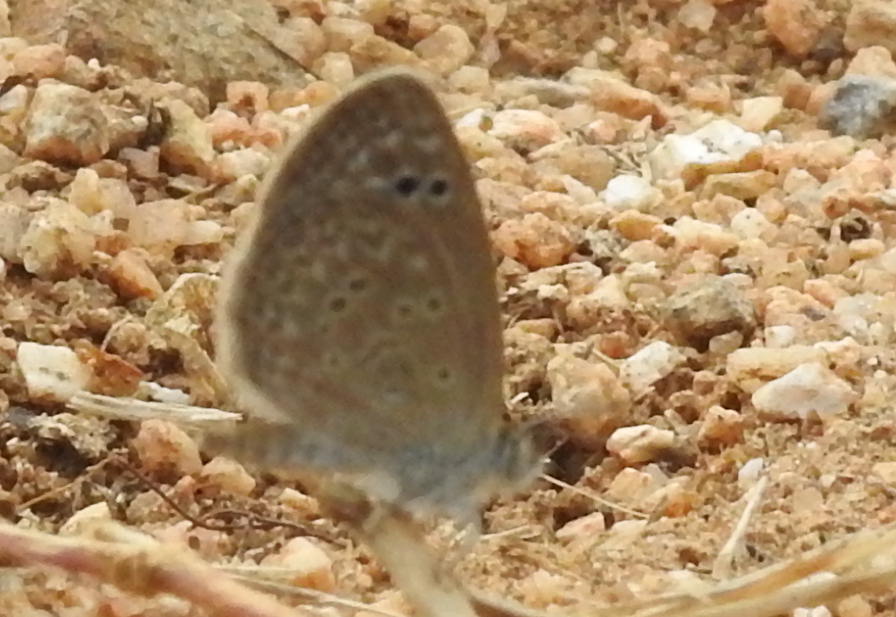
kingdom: Animalia
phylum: Arthropoda
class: Insecta
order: Lepidoptera
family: Lycaenidae
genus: Zizina
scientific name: Zizina otis
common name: Lesser grass blue
